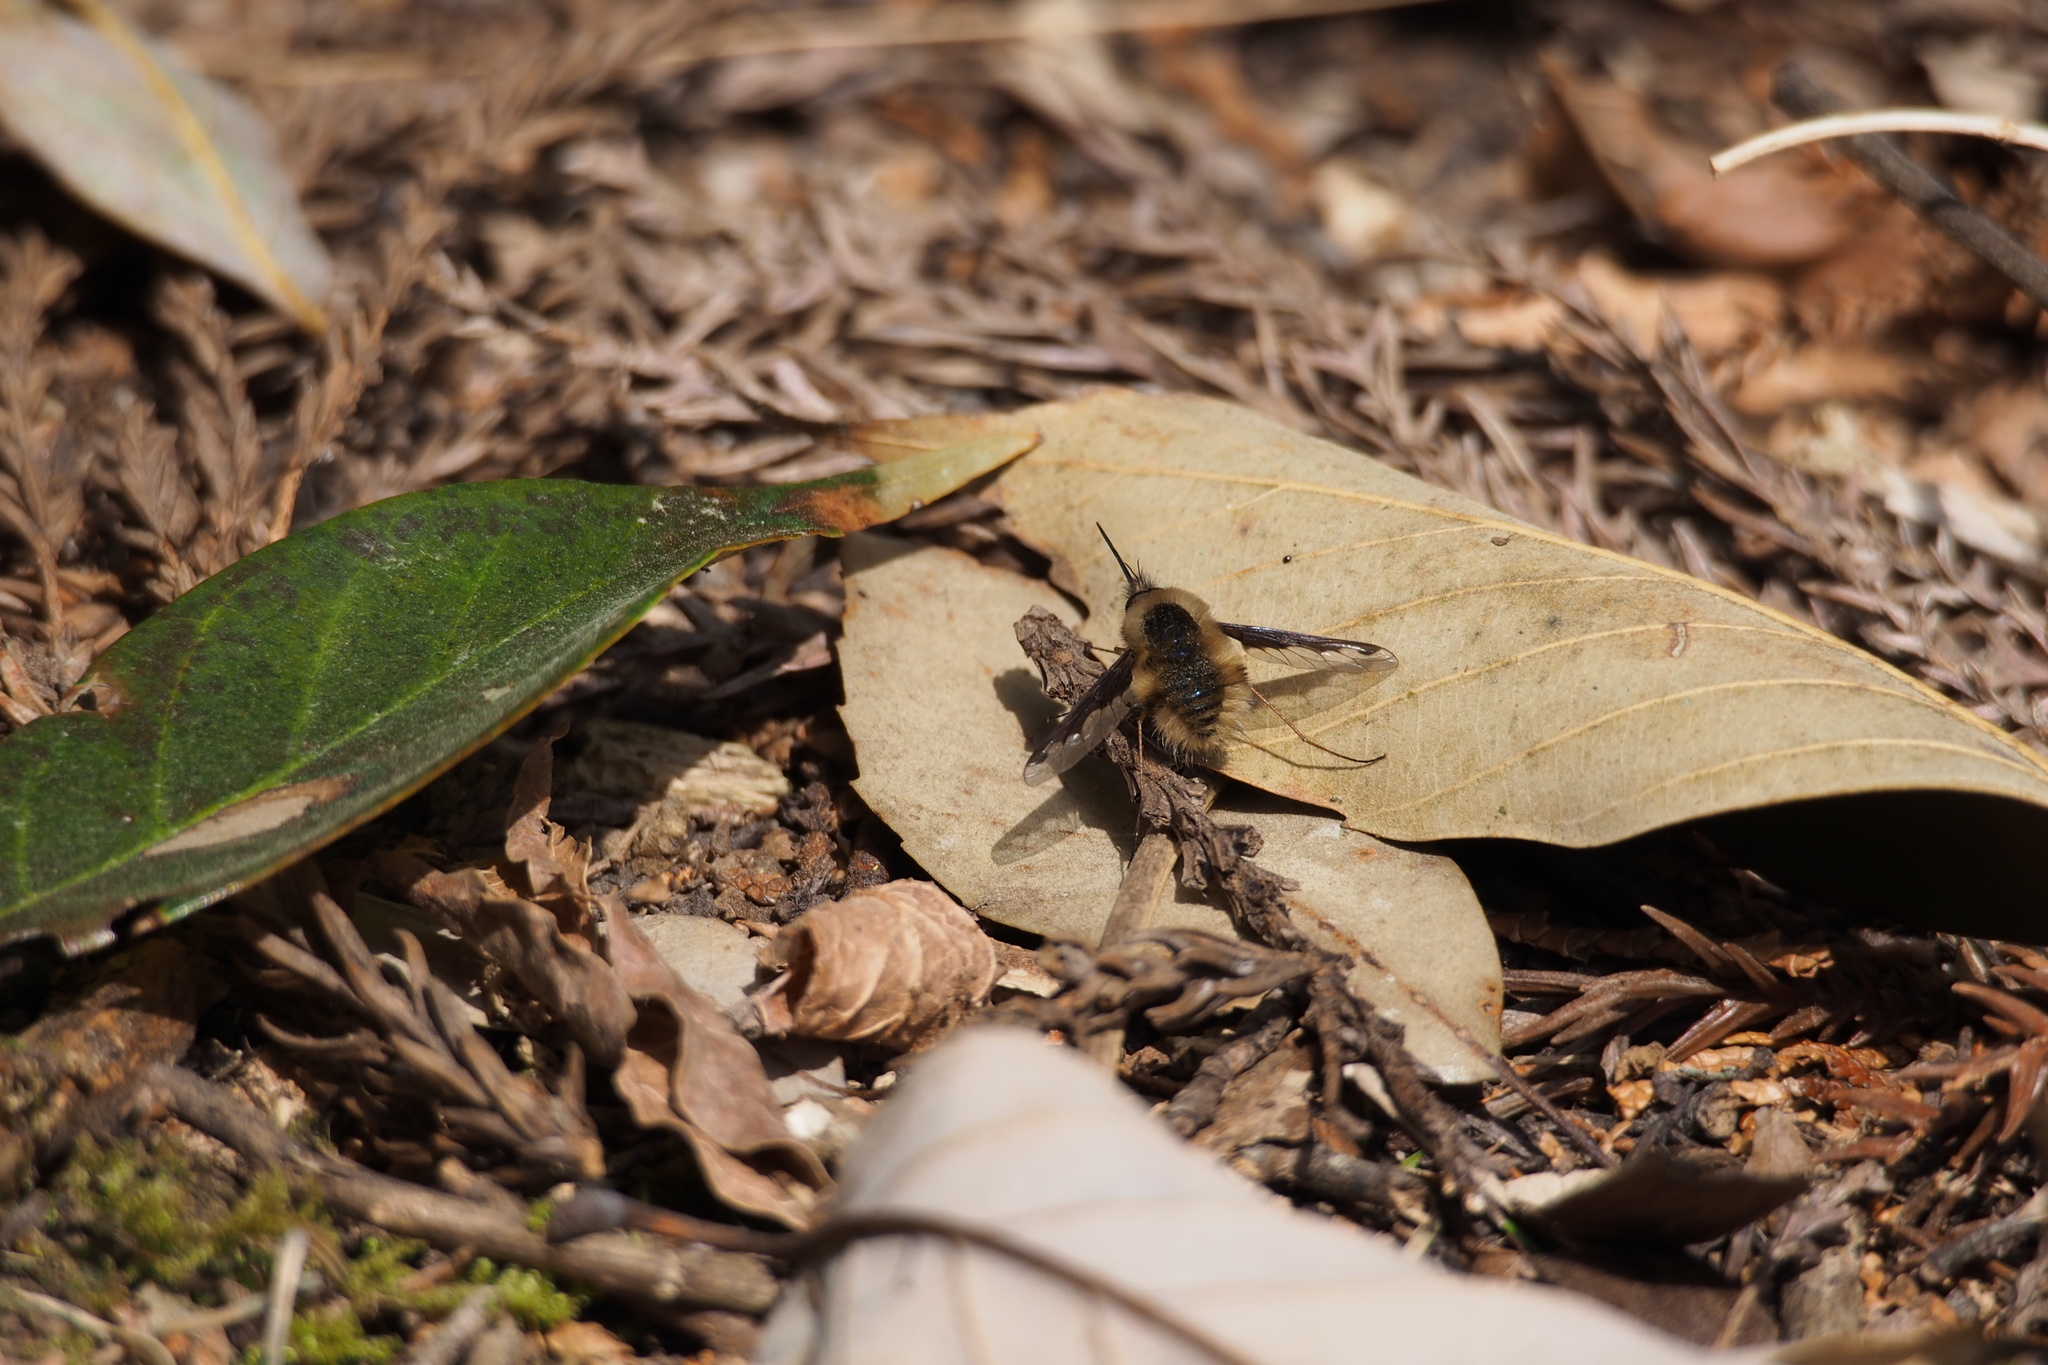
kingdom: Animalia
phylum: Arthropoda
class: Insecta
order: Diptera
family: Bombyliidae
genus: Bombylius
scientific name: Bombylius major
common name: Bee fly
